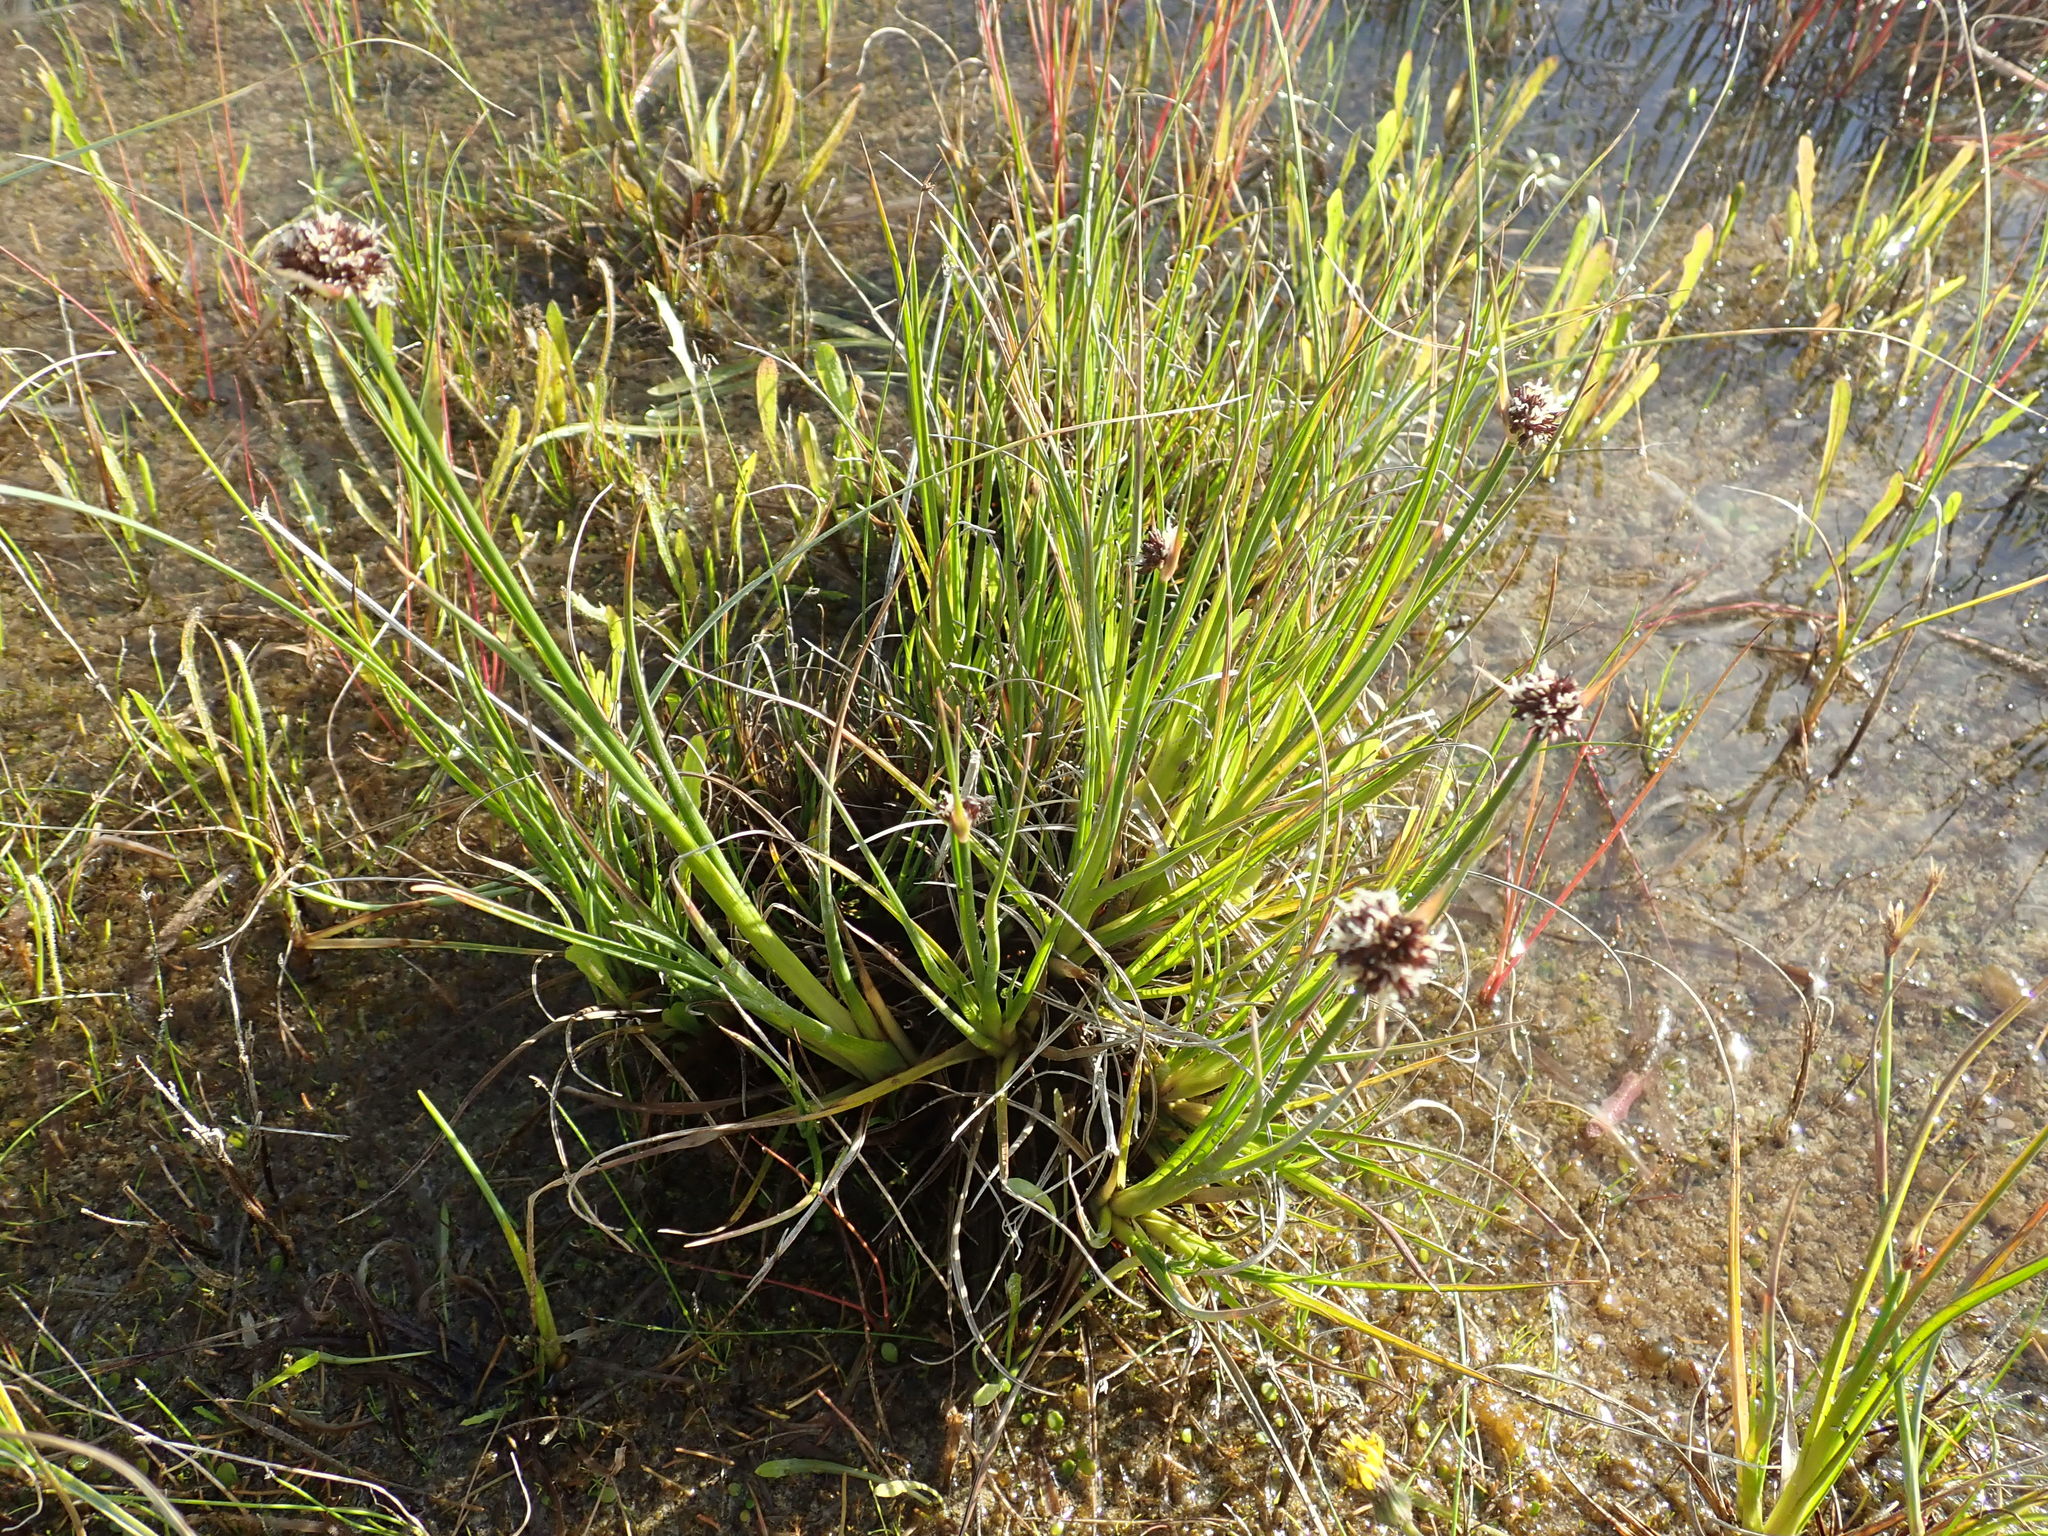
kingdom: Plantae
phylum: Tracheophyta
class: Liliopsida
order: Poales
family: Juncaceae
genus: Juncus
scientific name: Juncus caespiticius
